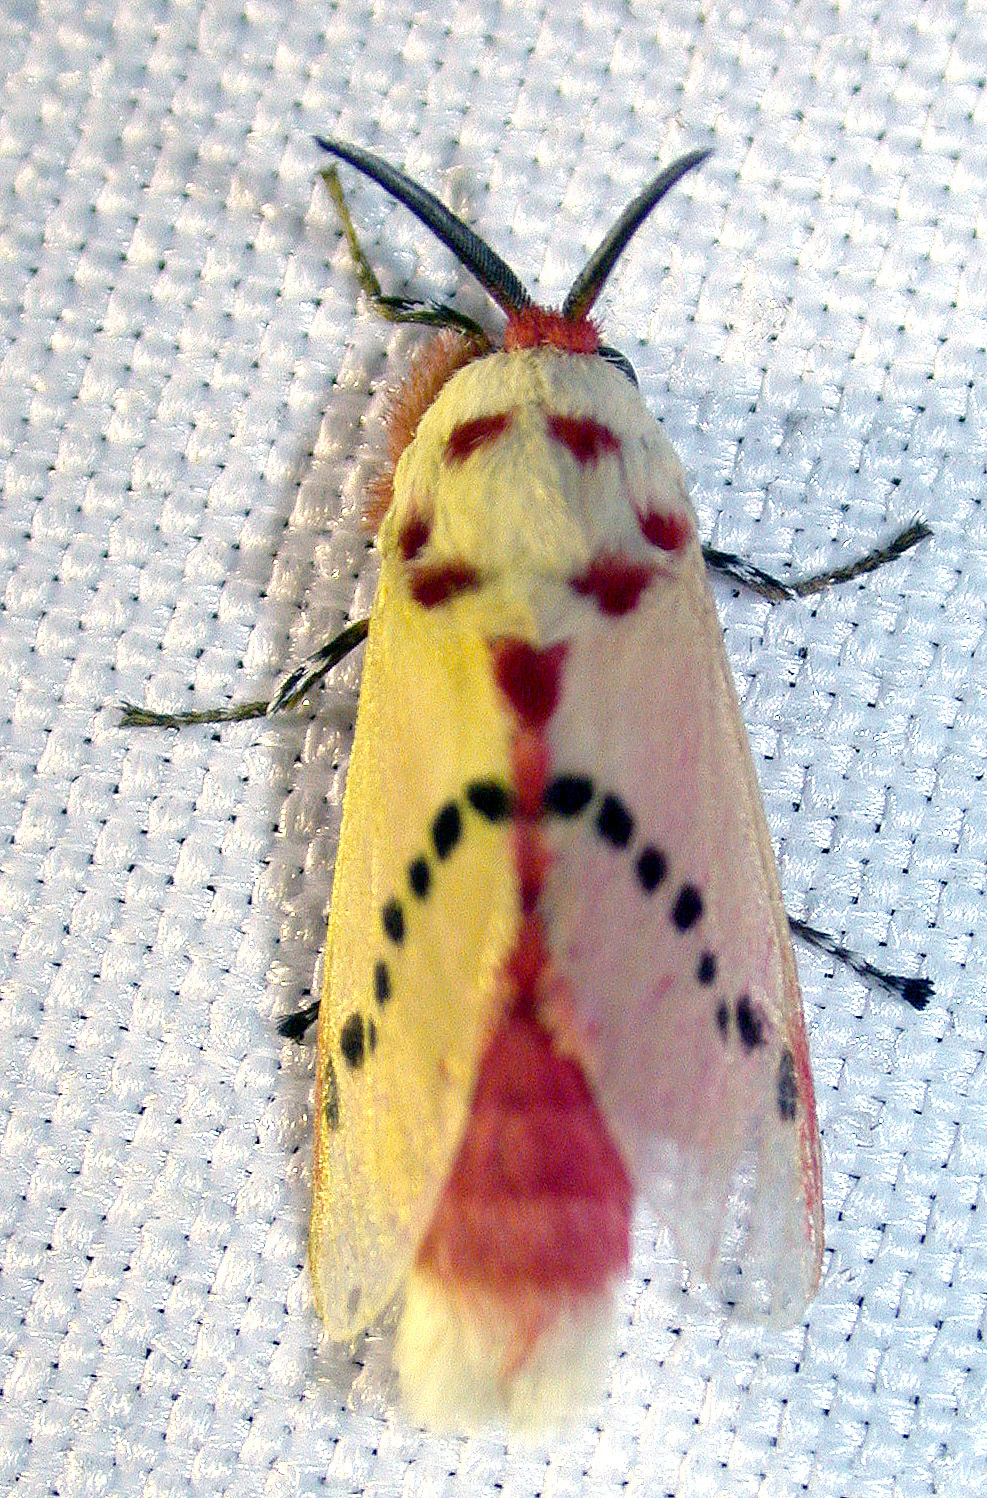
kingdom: Animalia
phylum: Arthropoda
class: Insecta
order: Lepidoptera
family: Megalopygidae
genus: Trosia
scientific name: Trosia dimas
